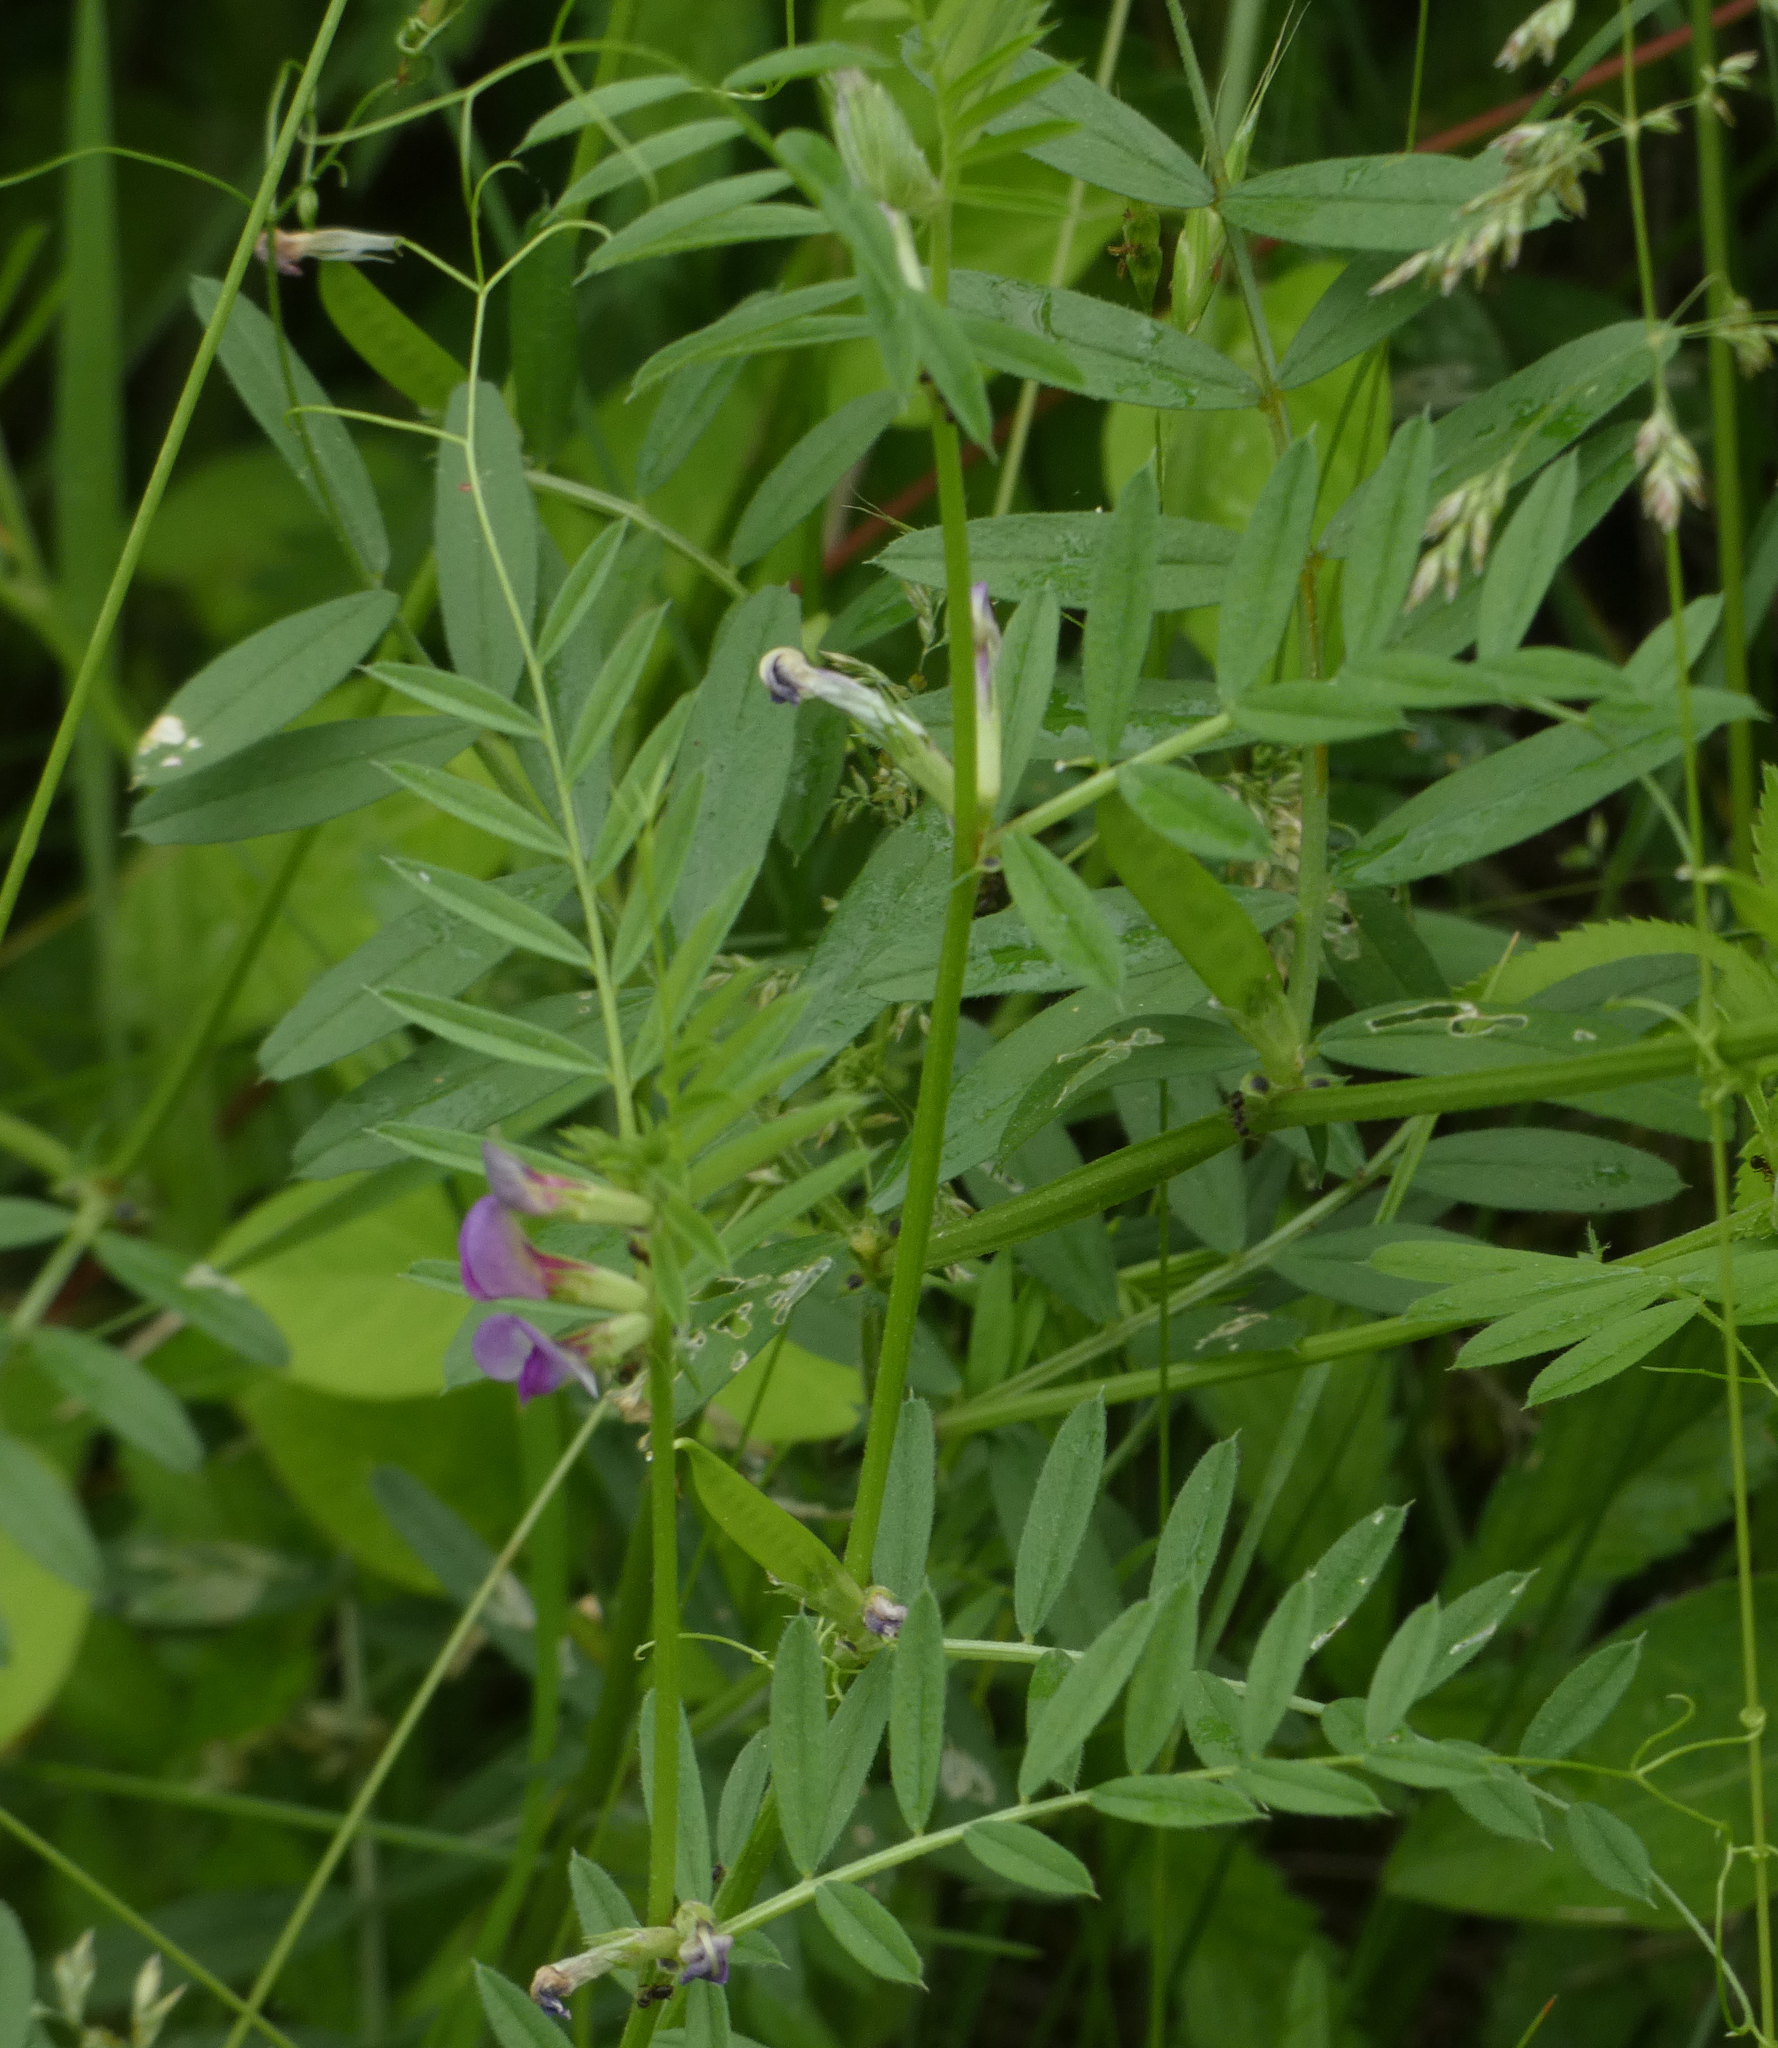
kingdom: Plantae
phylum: Tracheophyta
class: Magnoliopsida
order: Fabales
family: Fabaceae
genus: Vicia
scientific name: Vicia sativa
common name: Garden vetch
